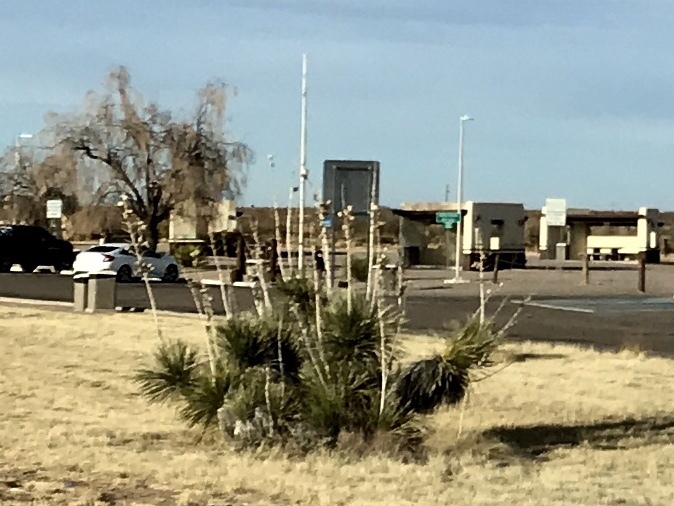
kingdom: Plantae
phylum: Tracheophyta
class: Liliopsida
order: Asparagales
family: Asparagaceae
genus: Yucca
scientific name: Yucca elata
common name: Palmella
